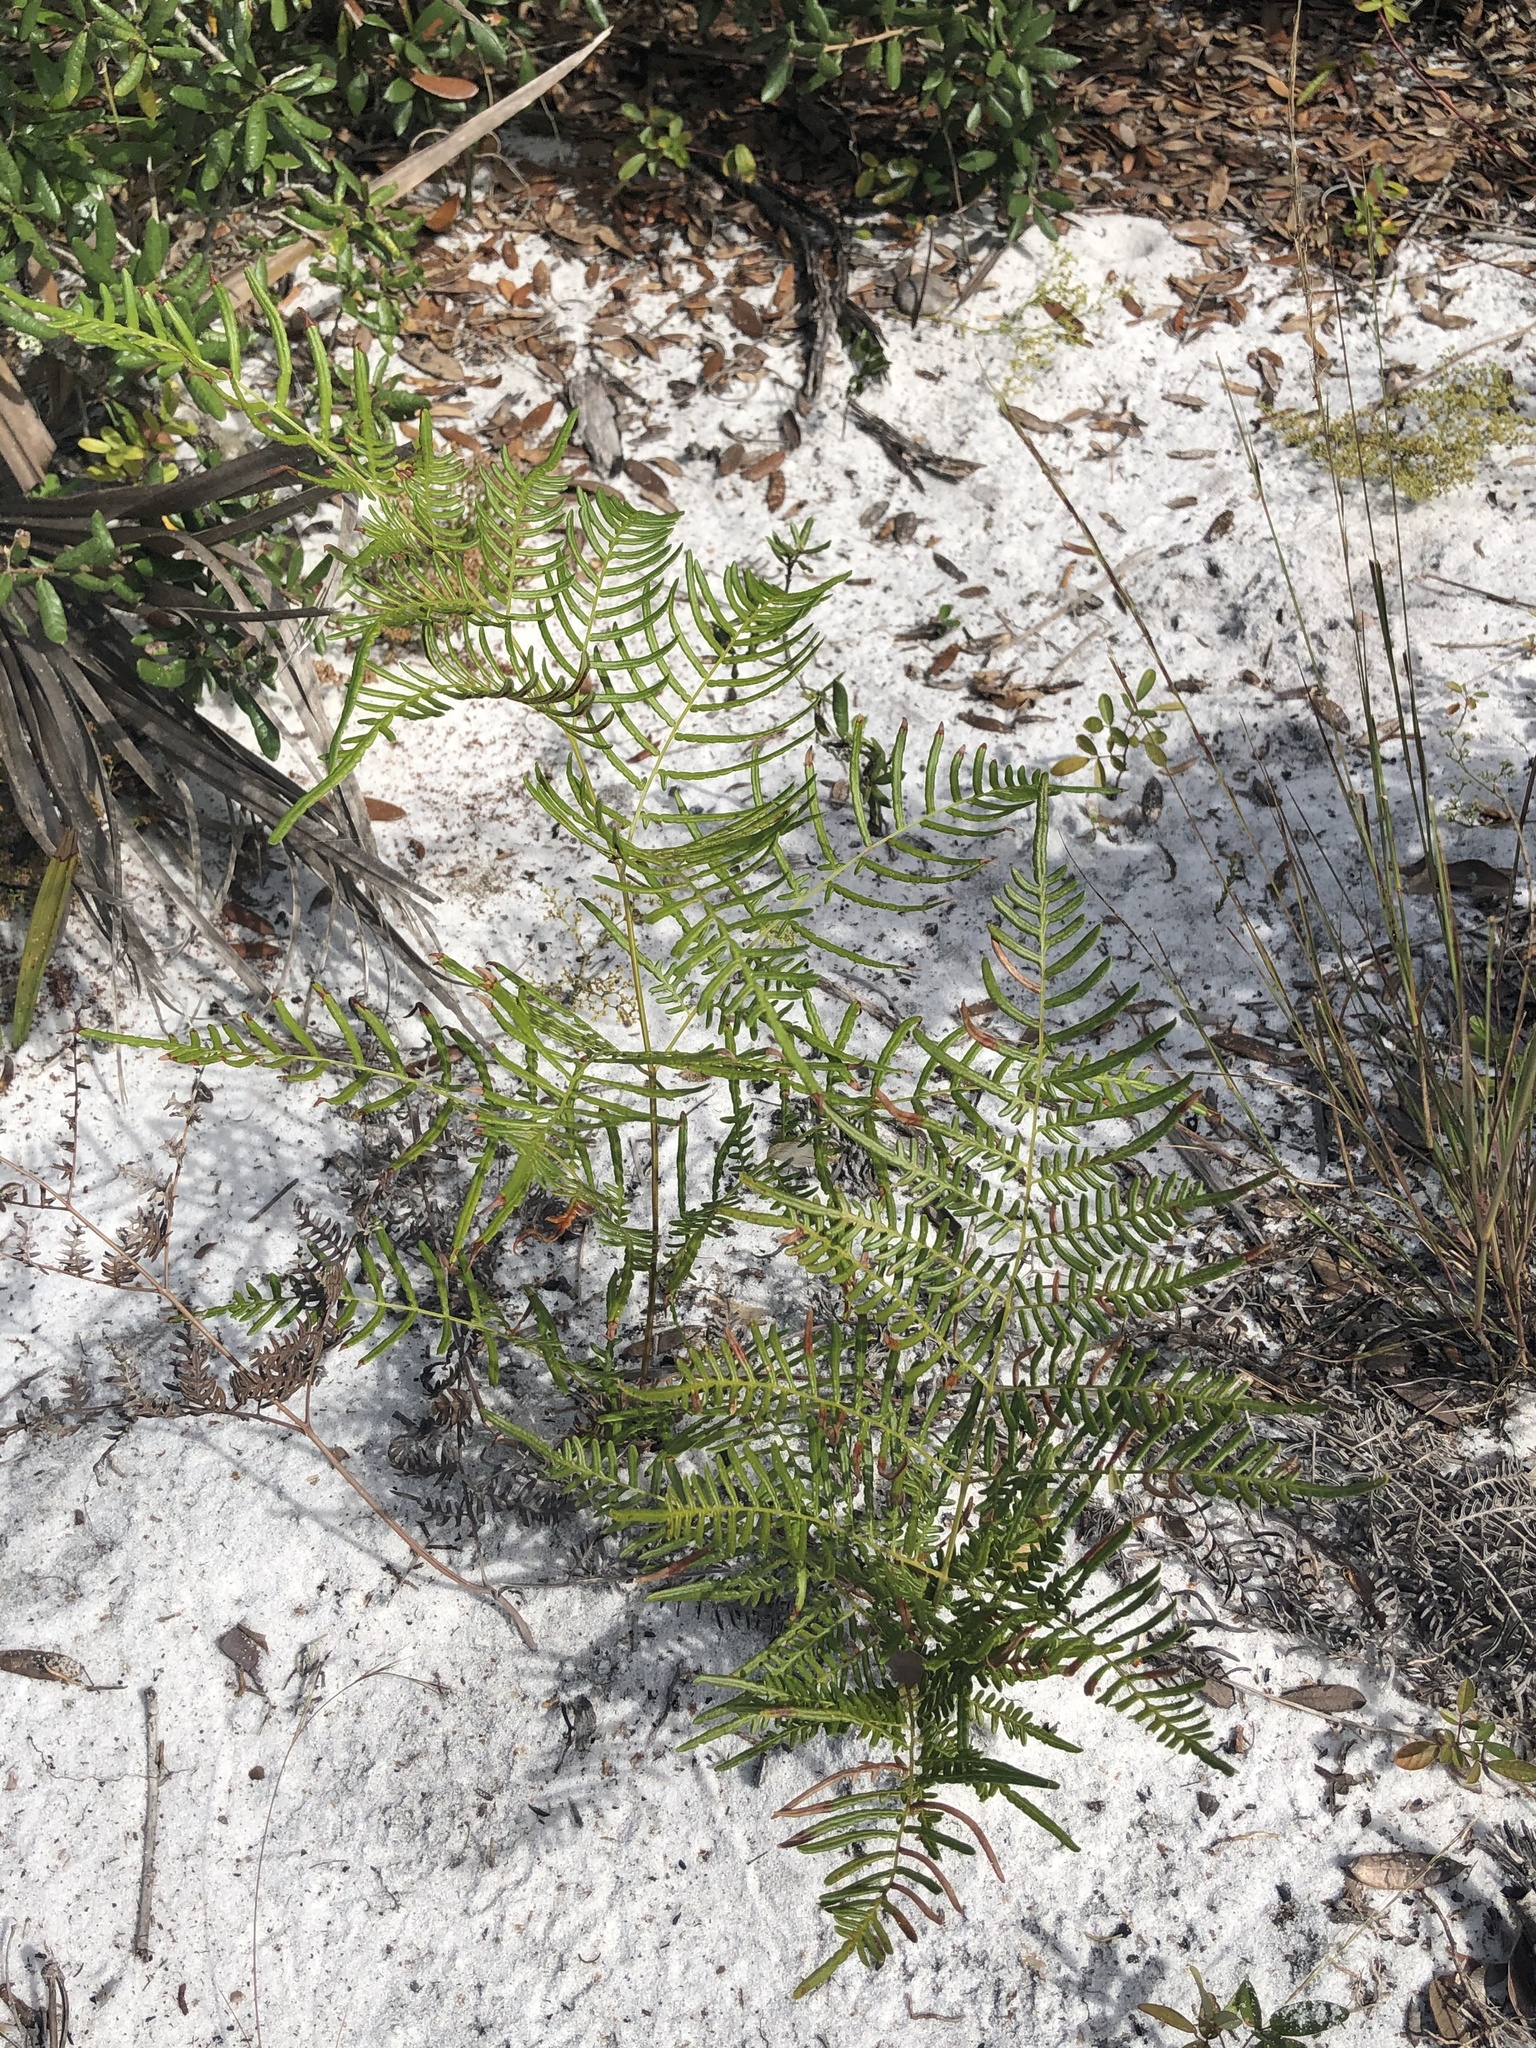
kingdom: Plantae
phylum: Tracheophyta
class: Polypodiopsida
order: Polypodiales
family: Dennstaedtiaceae
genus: Pteridium
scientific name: Pteridium caudatum
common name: Southern bracken fern
